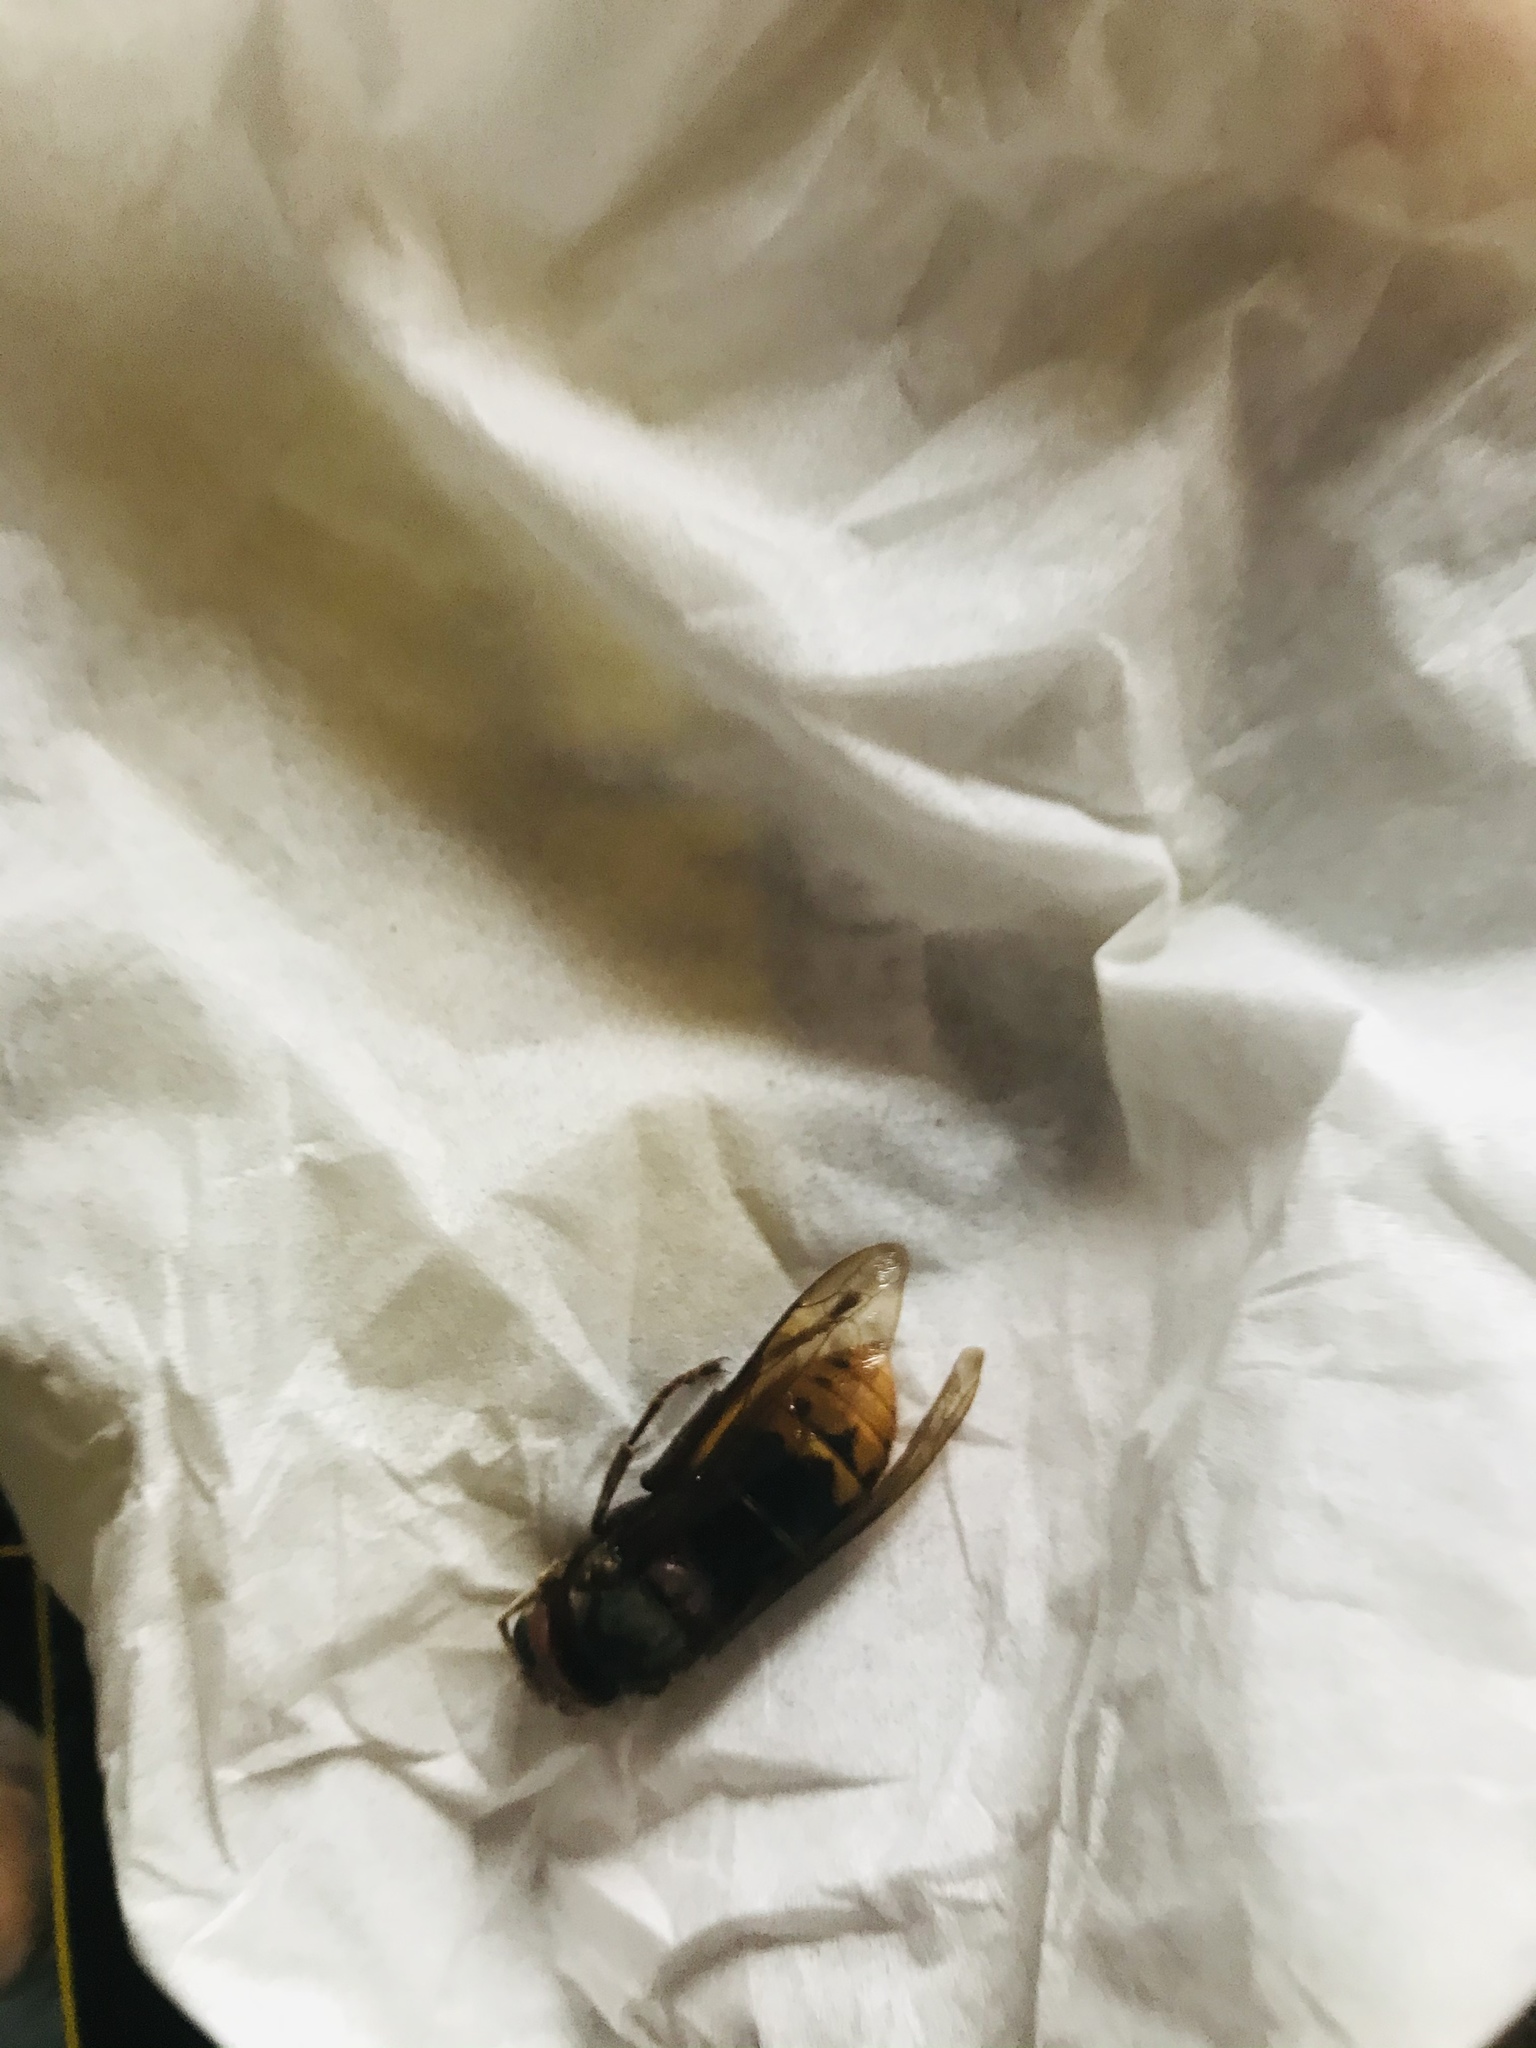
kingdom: Animalia
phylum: Arthropoda
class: Insecta
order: Hymenoptera
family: Vespidae
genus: Vespa
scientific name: Vespa crabro
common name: Hornet
